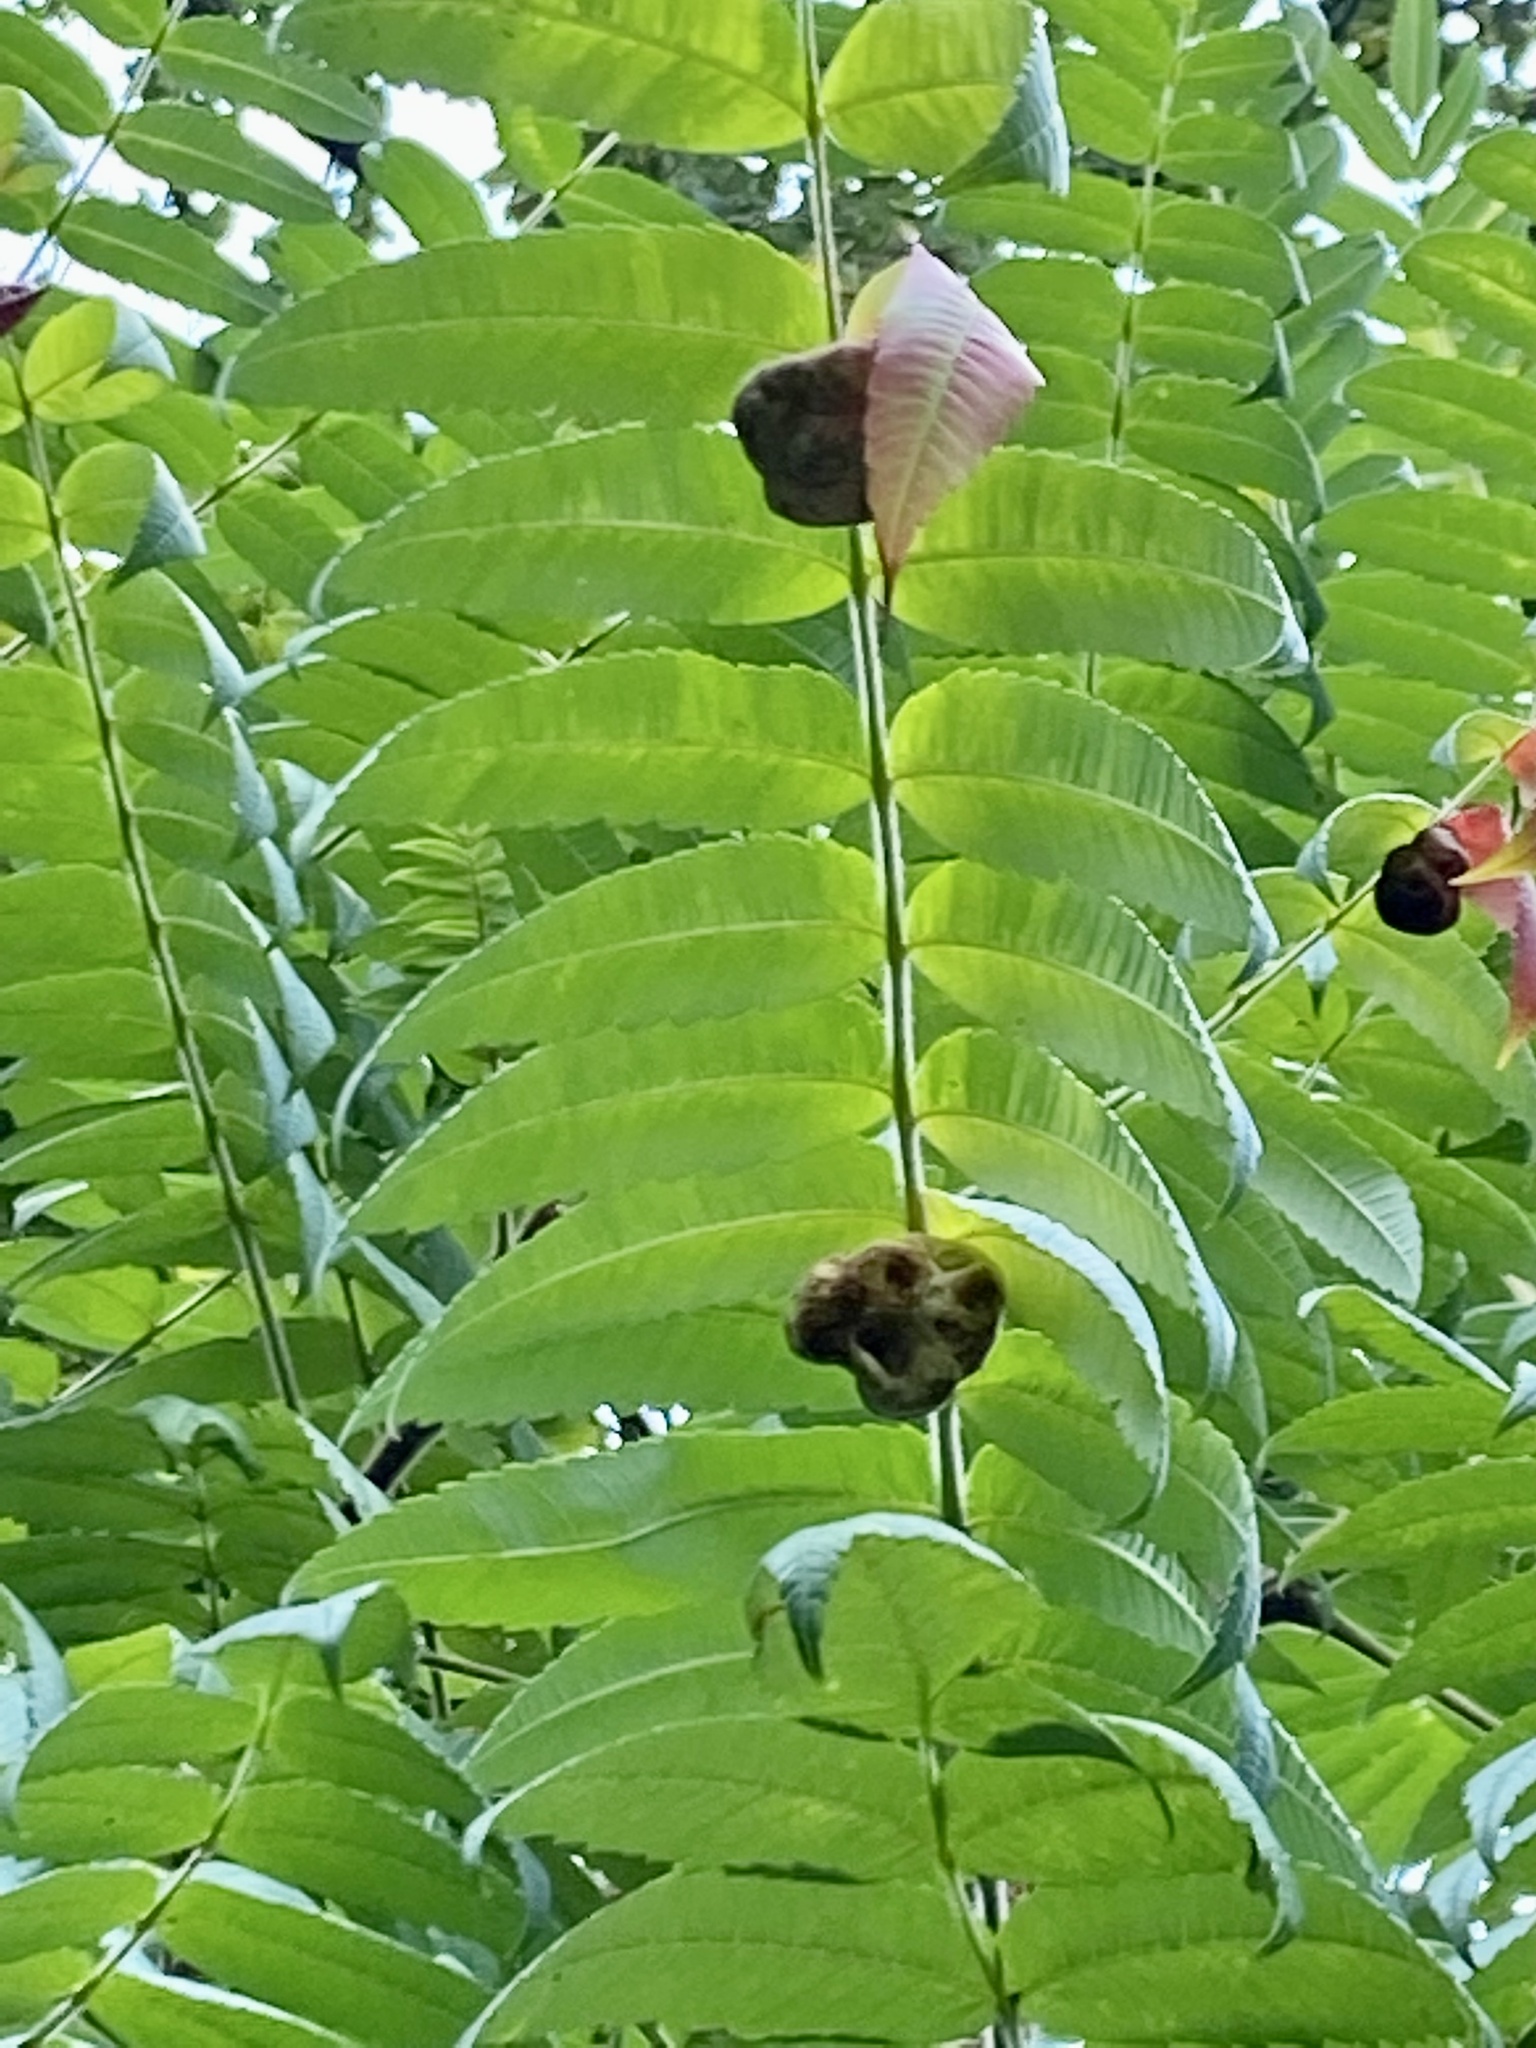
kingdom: Animalia
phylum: Arthropoda
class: Insecta
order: Hemiptera
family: Aphididae
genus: Melaphis
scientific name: Melaphis rhois
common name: Sumac gall aphid
